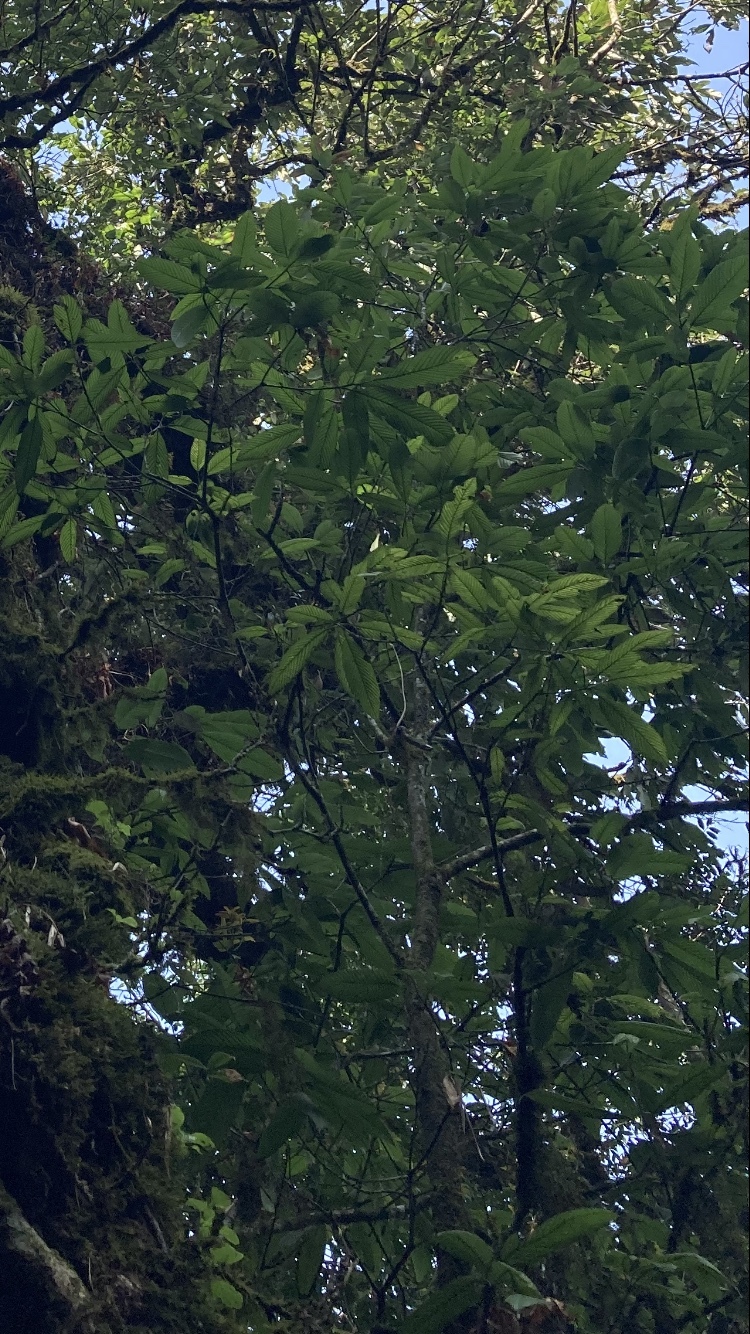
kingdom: Plantae
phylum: Tracheophyta
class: Magnoliopsida
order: Fagales
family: Fagaceae
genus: Castanopsis
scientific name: Castanopsis indica
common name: Indian-chestnut
